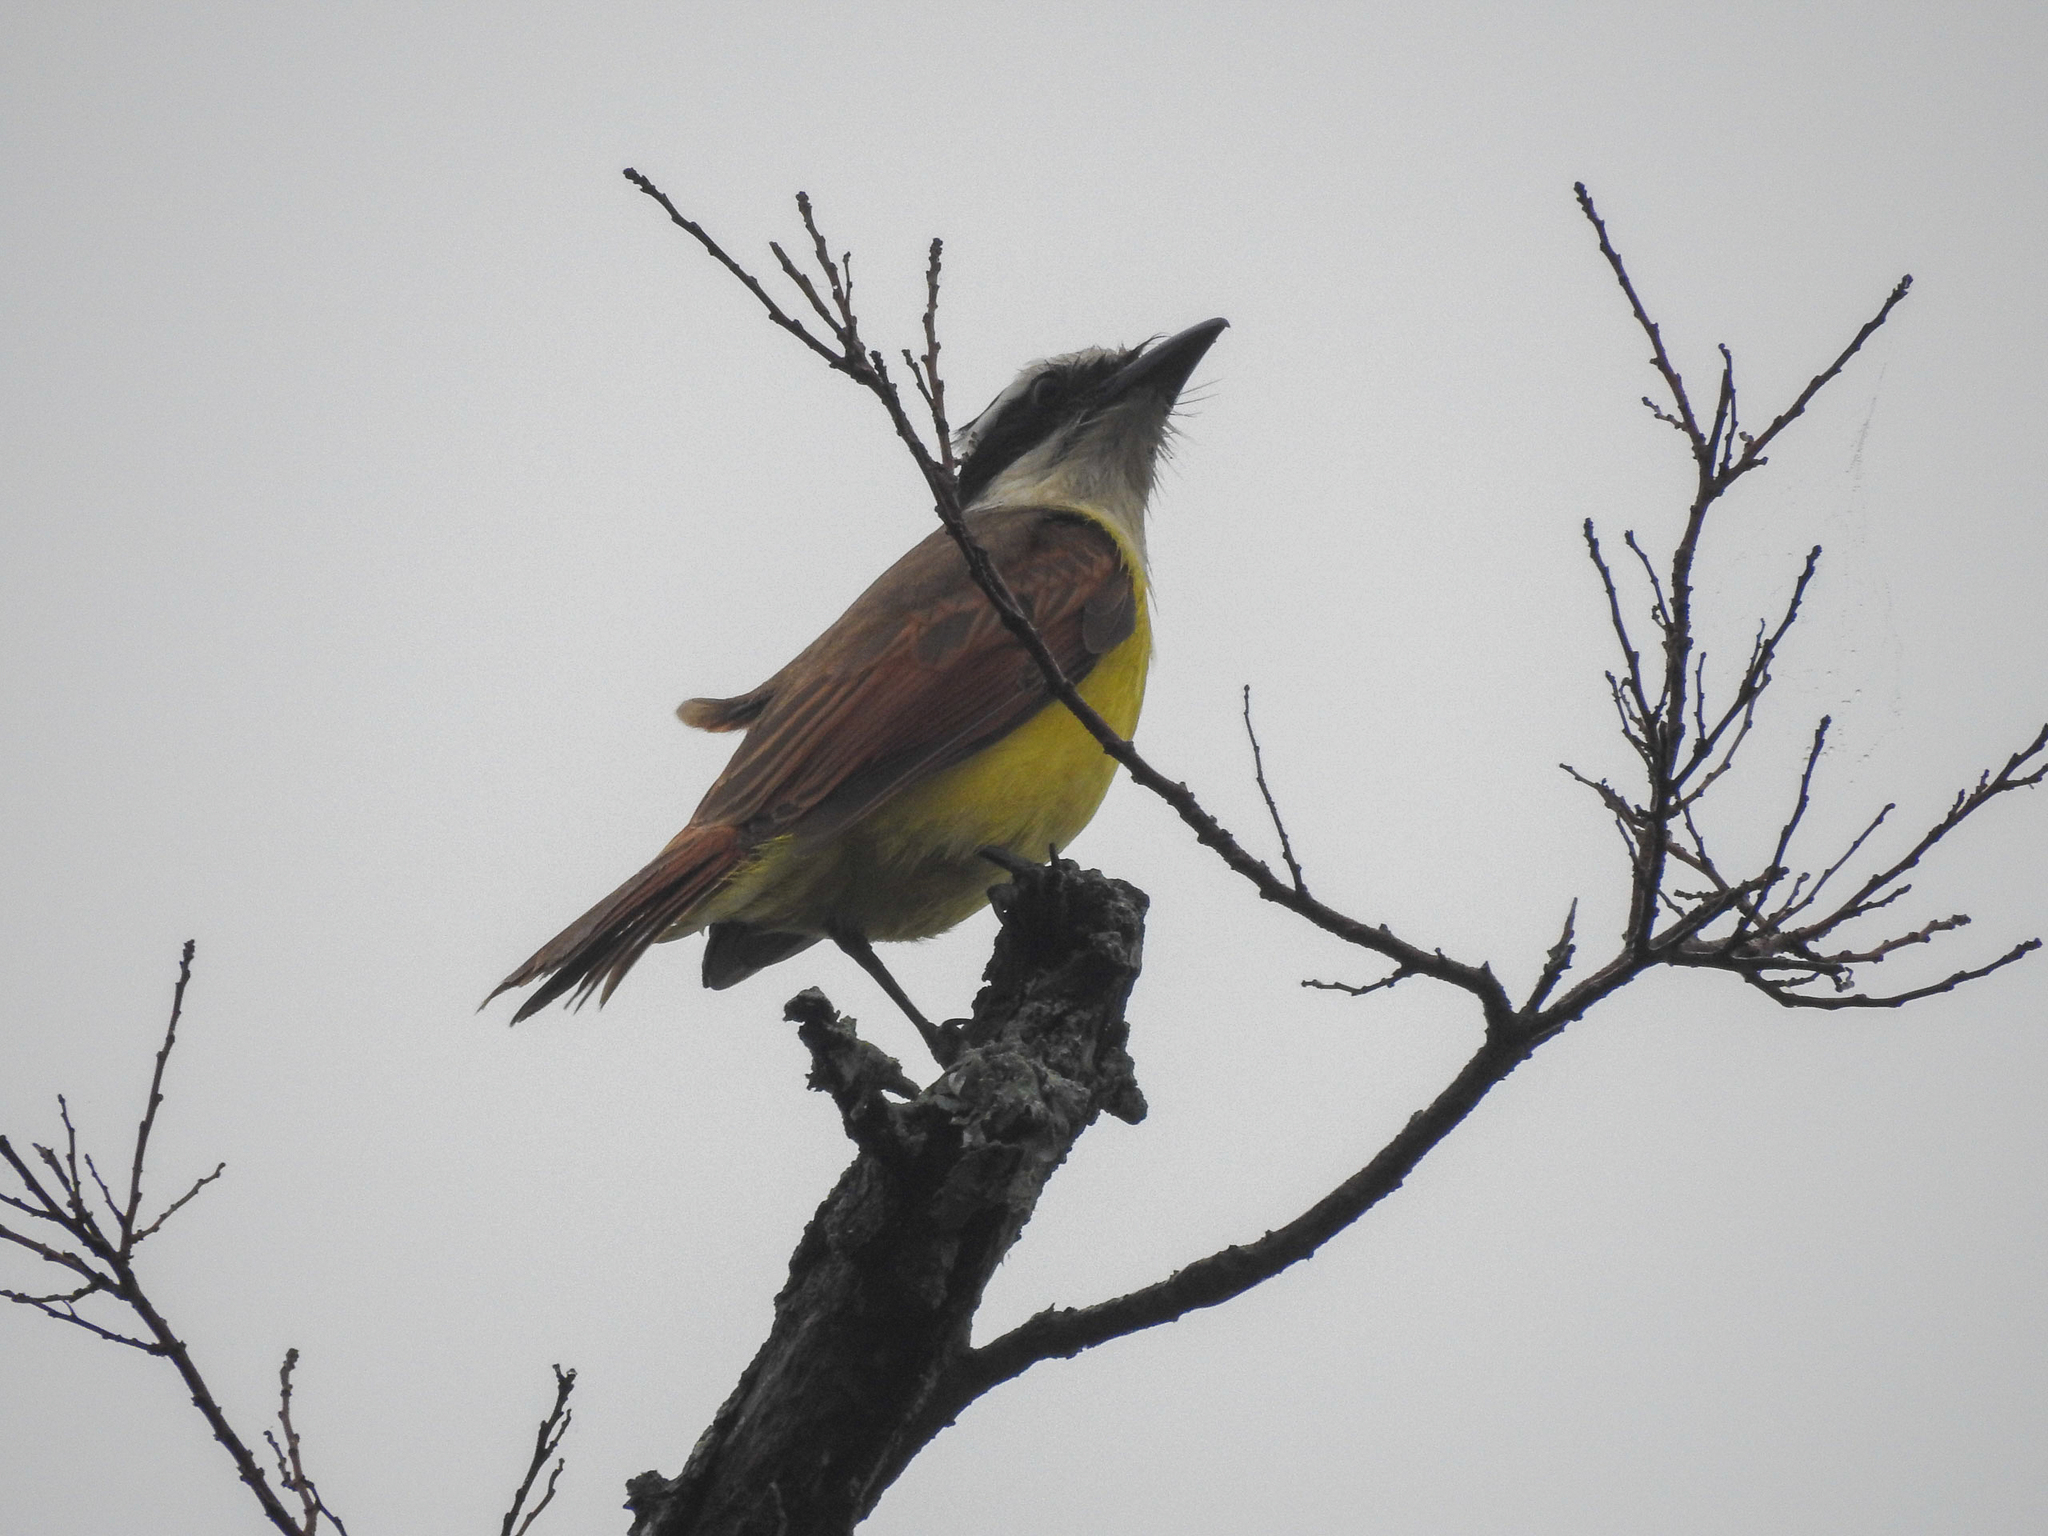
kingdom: Animalia
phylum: Chordata
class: Aves
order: Passeriformes
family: Tyrannidae
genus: Pitangus
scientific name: Pitangus sulphuratus
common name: Great kiskadee
